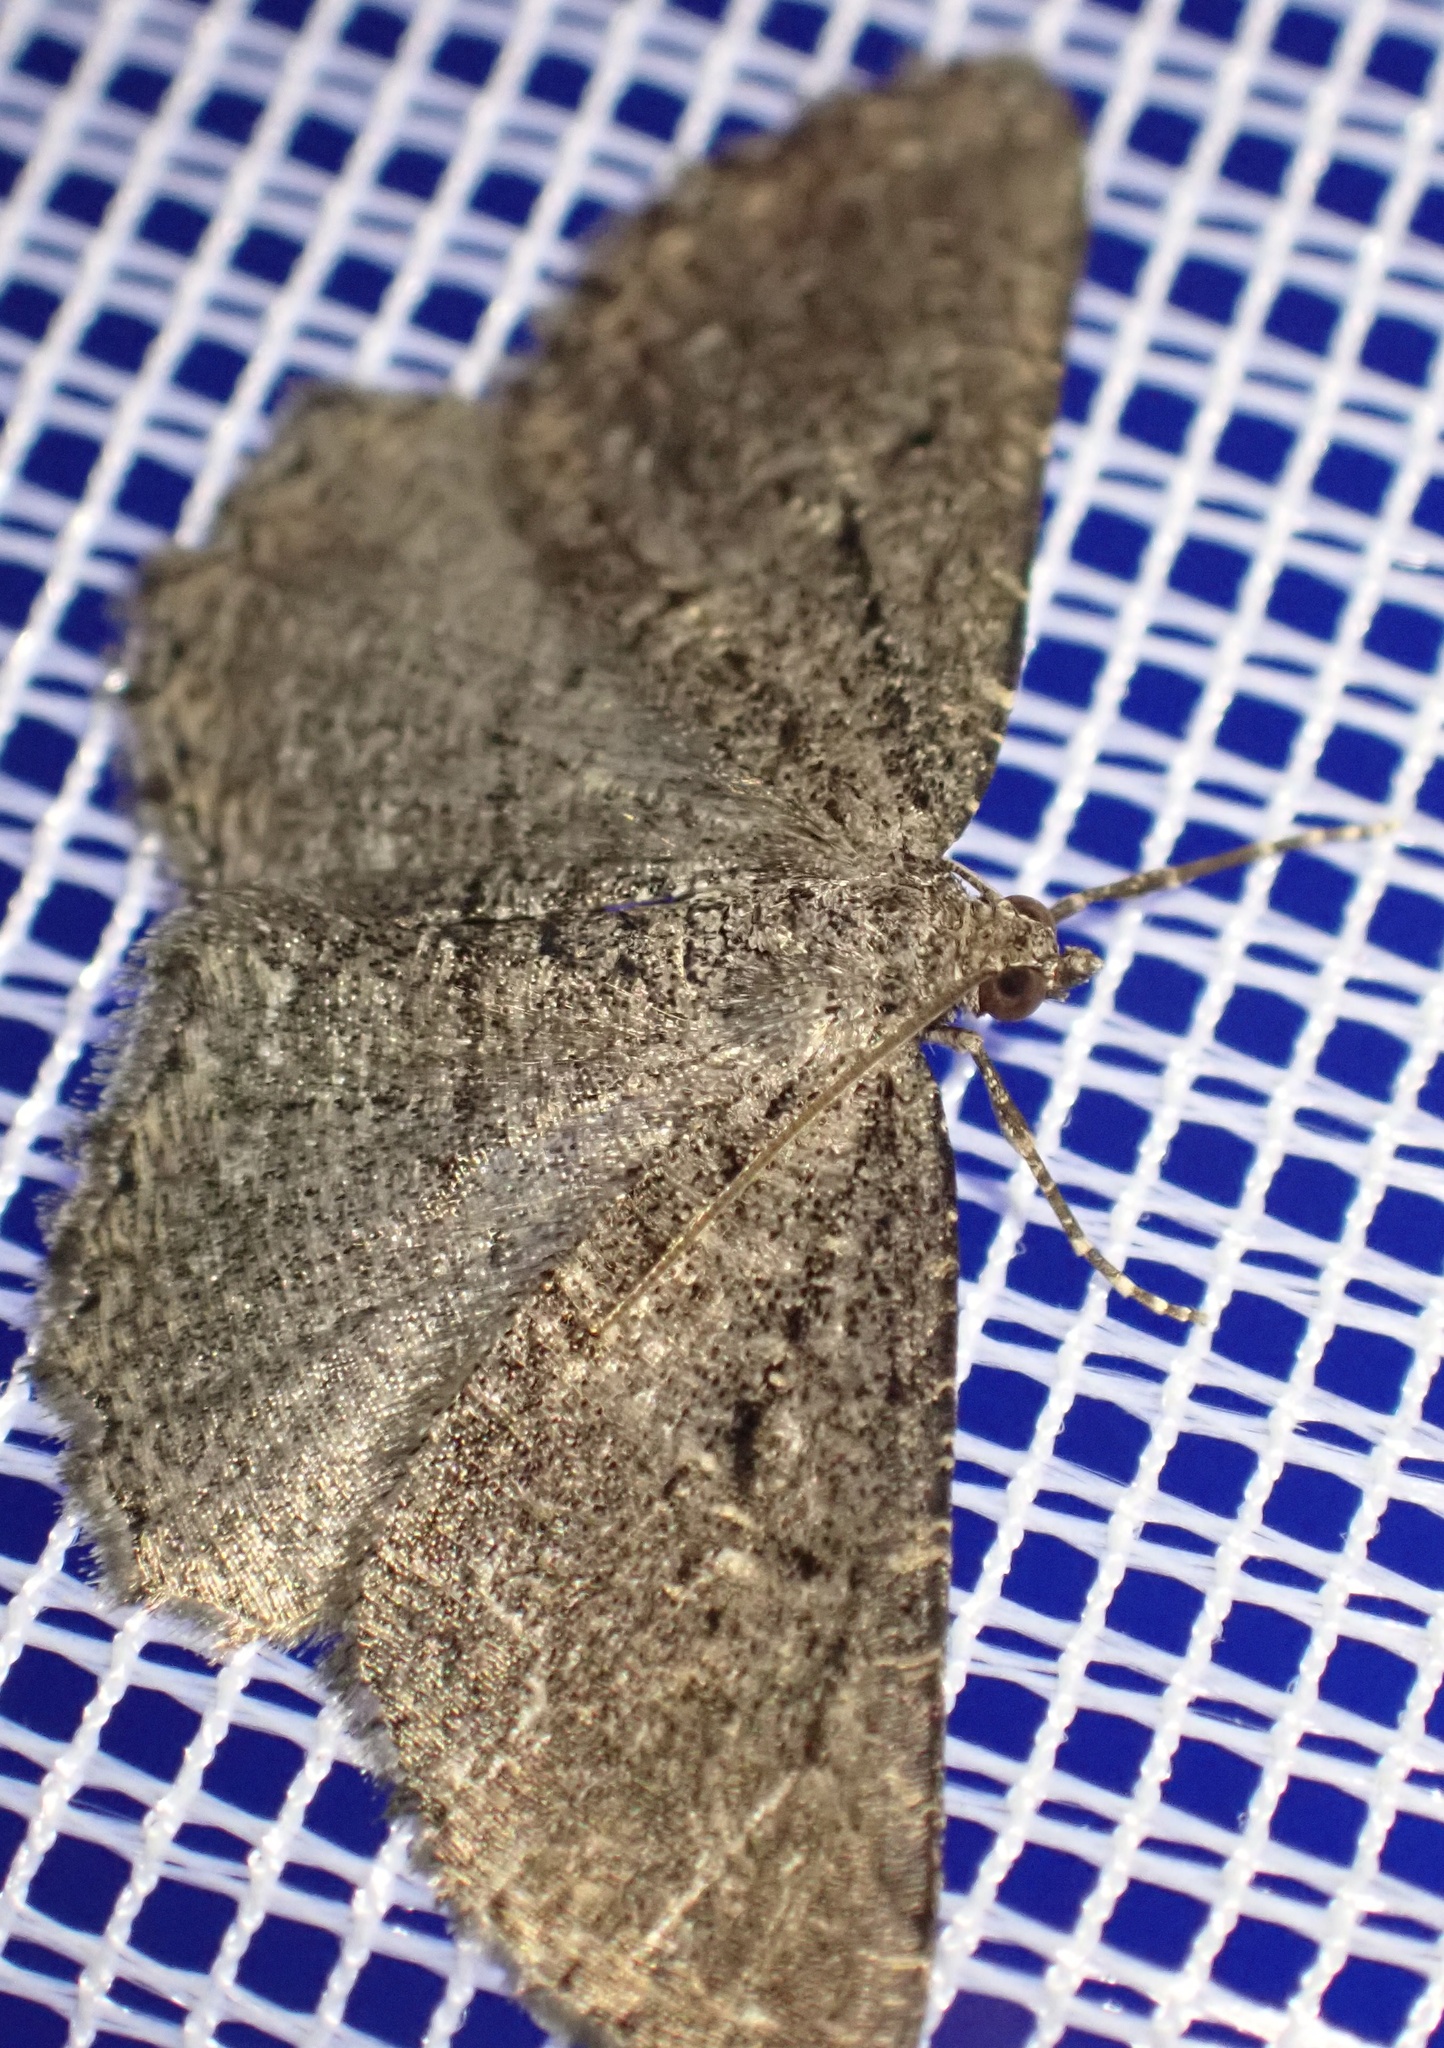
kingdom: Animalia
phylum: Arthropoda
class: Insecta
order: Lepidoptera
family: Geometridae
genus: Rhoptria
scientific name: Rhoptria asperaria
